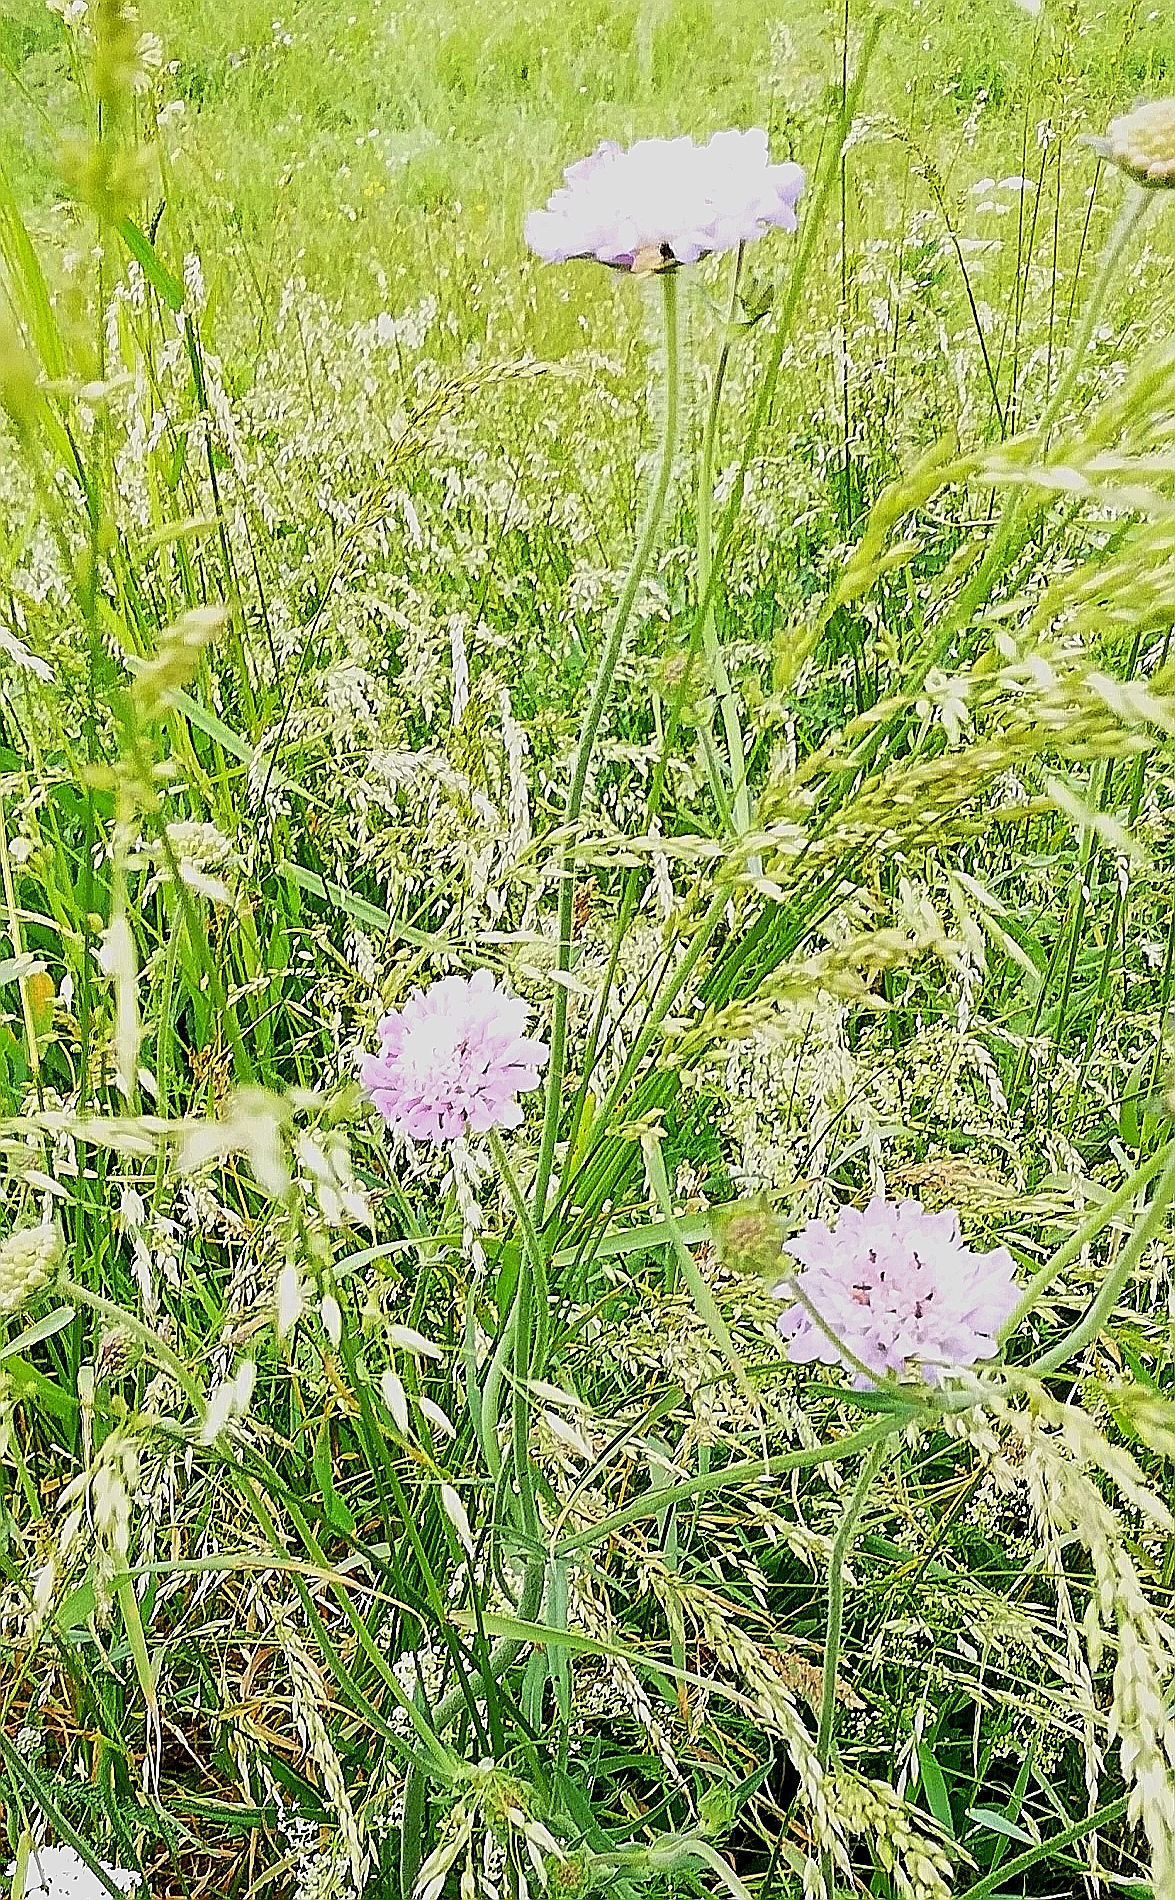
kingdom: Plantae
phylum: Tracheophyta
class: Magnoliopsida
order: Dipsacales
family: Caprifoliaceae
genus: Knautia
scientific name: Knautia arvensis
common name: Field scabiosa
